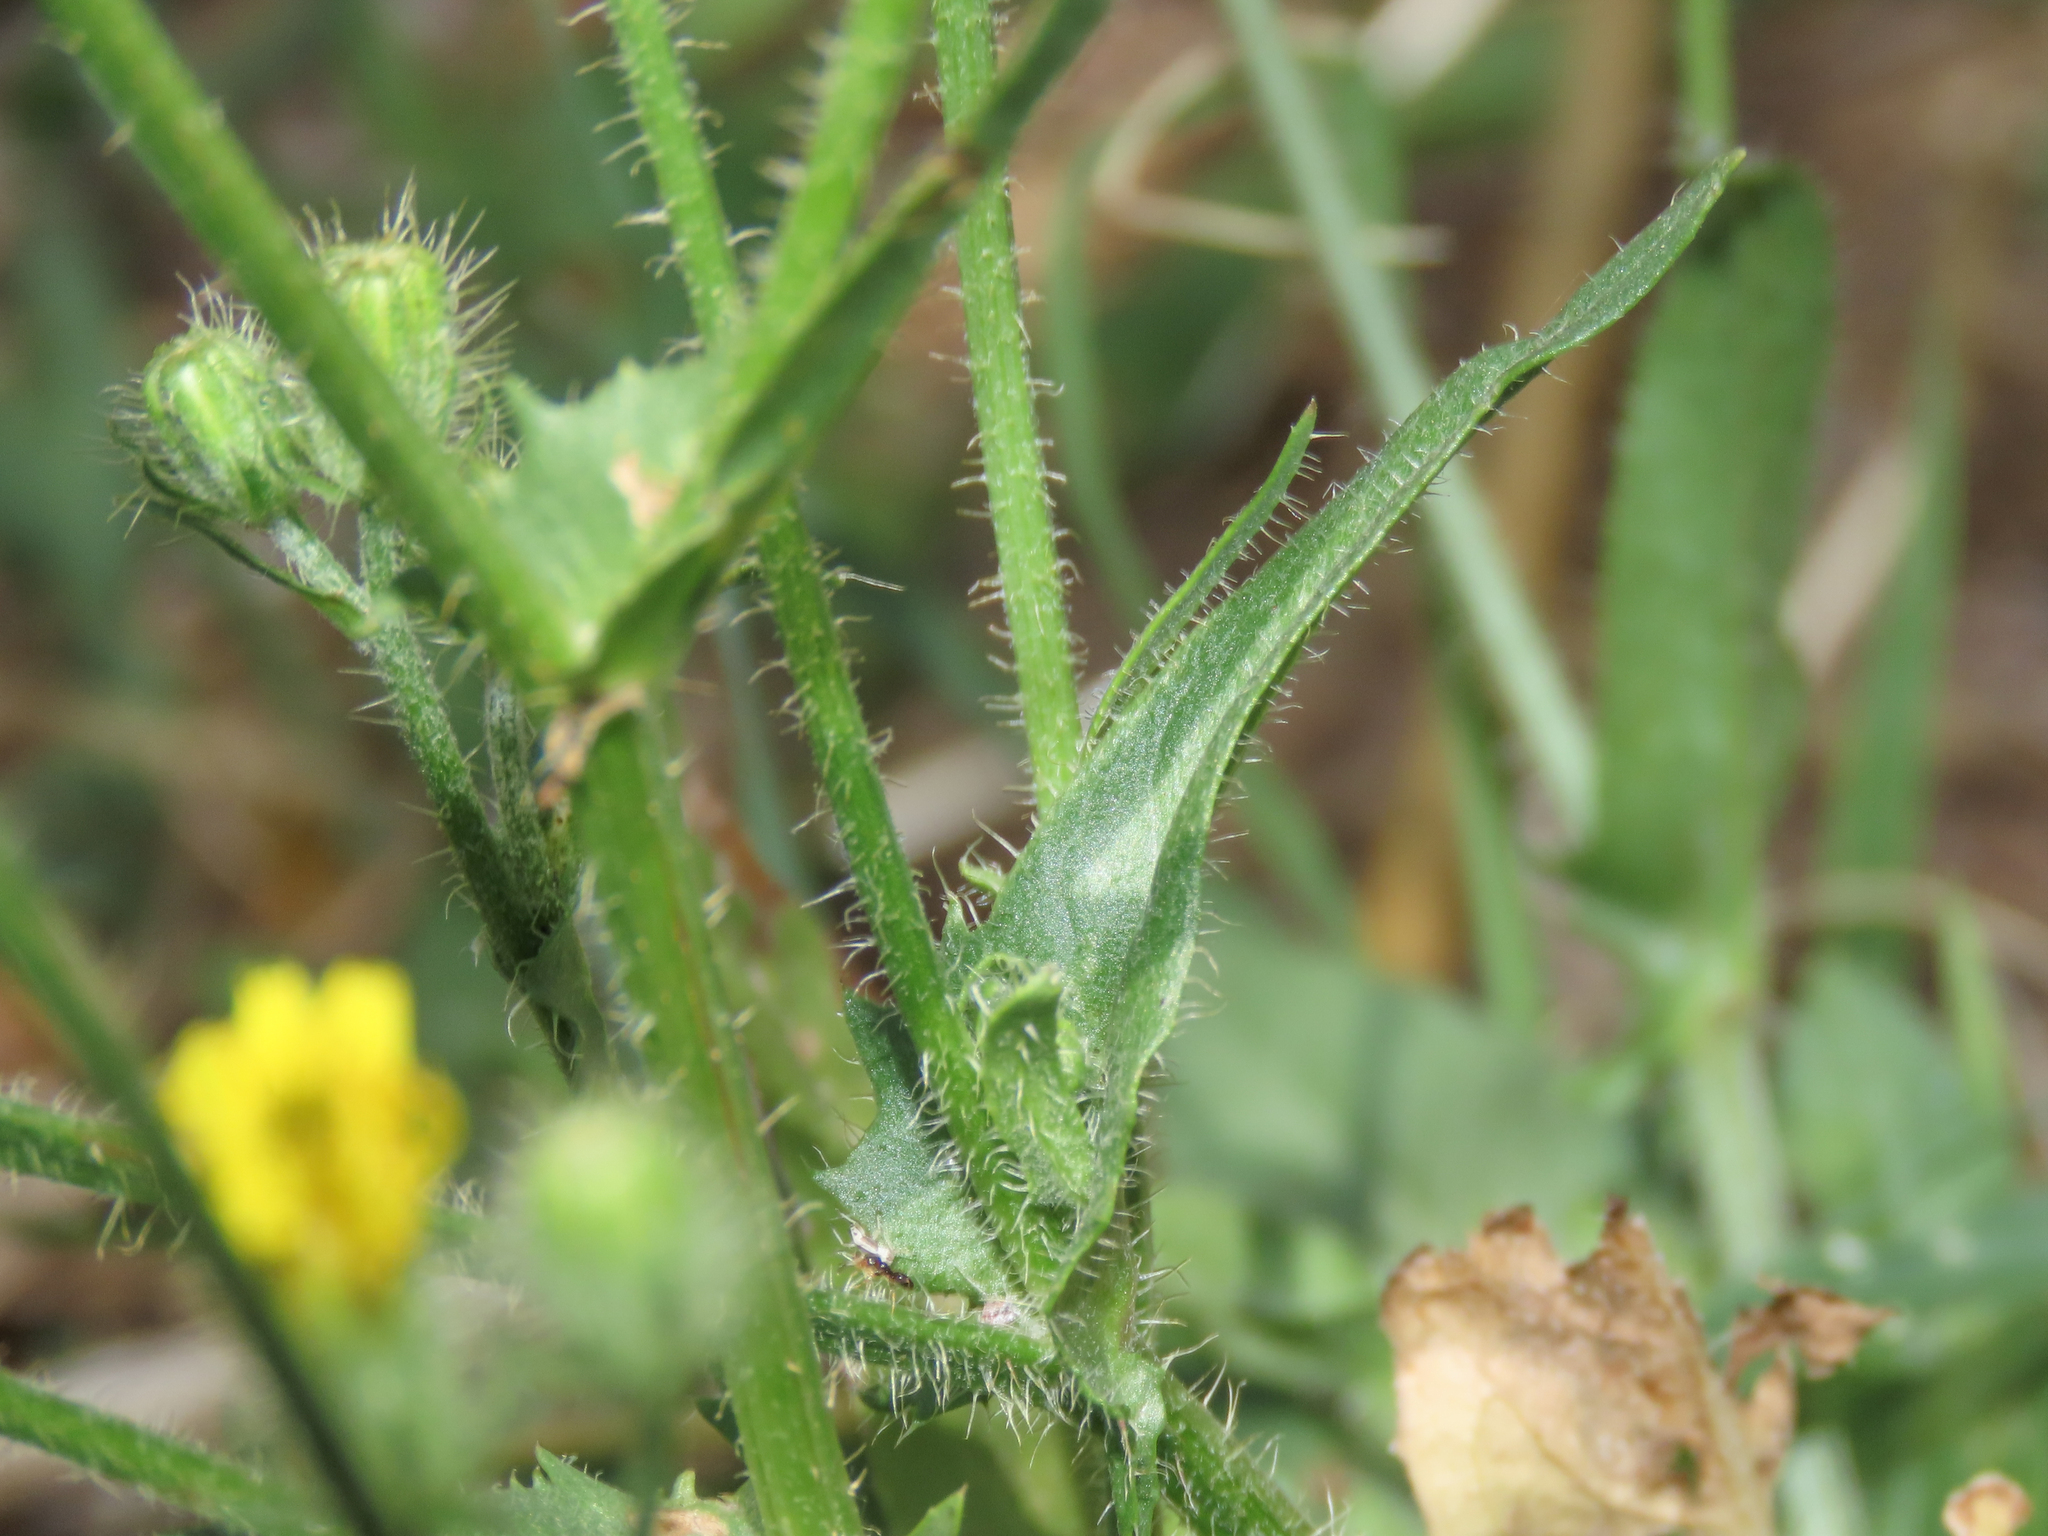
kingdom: Plantae
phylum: Tracheophyta
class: Magnoliopsida
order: Asterales
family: Asteraceae
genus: Crepis
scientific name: Crepis setosa
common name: Bristly hawk's-beard
